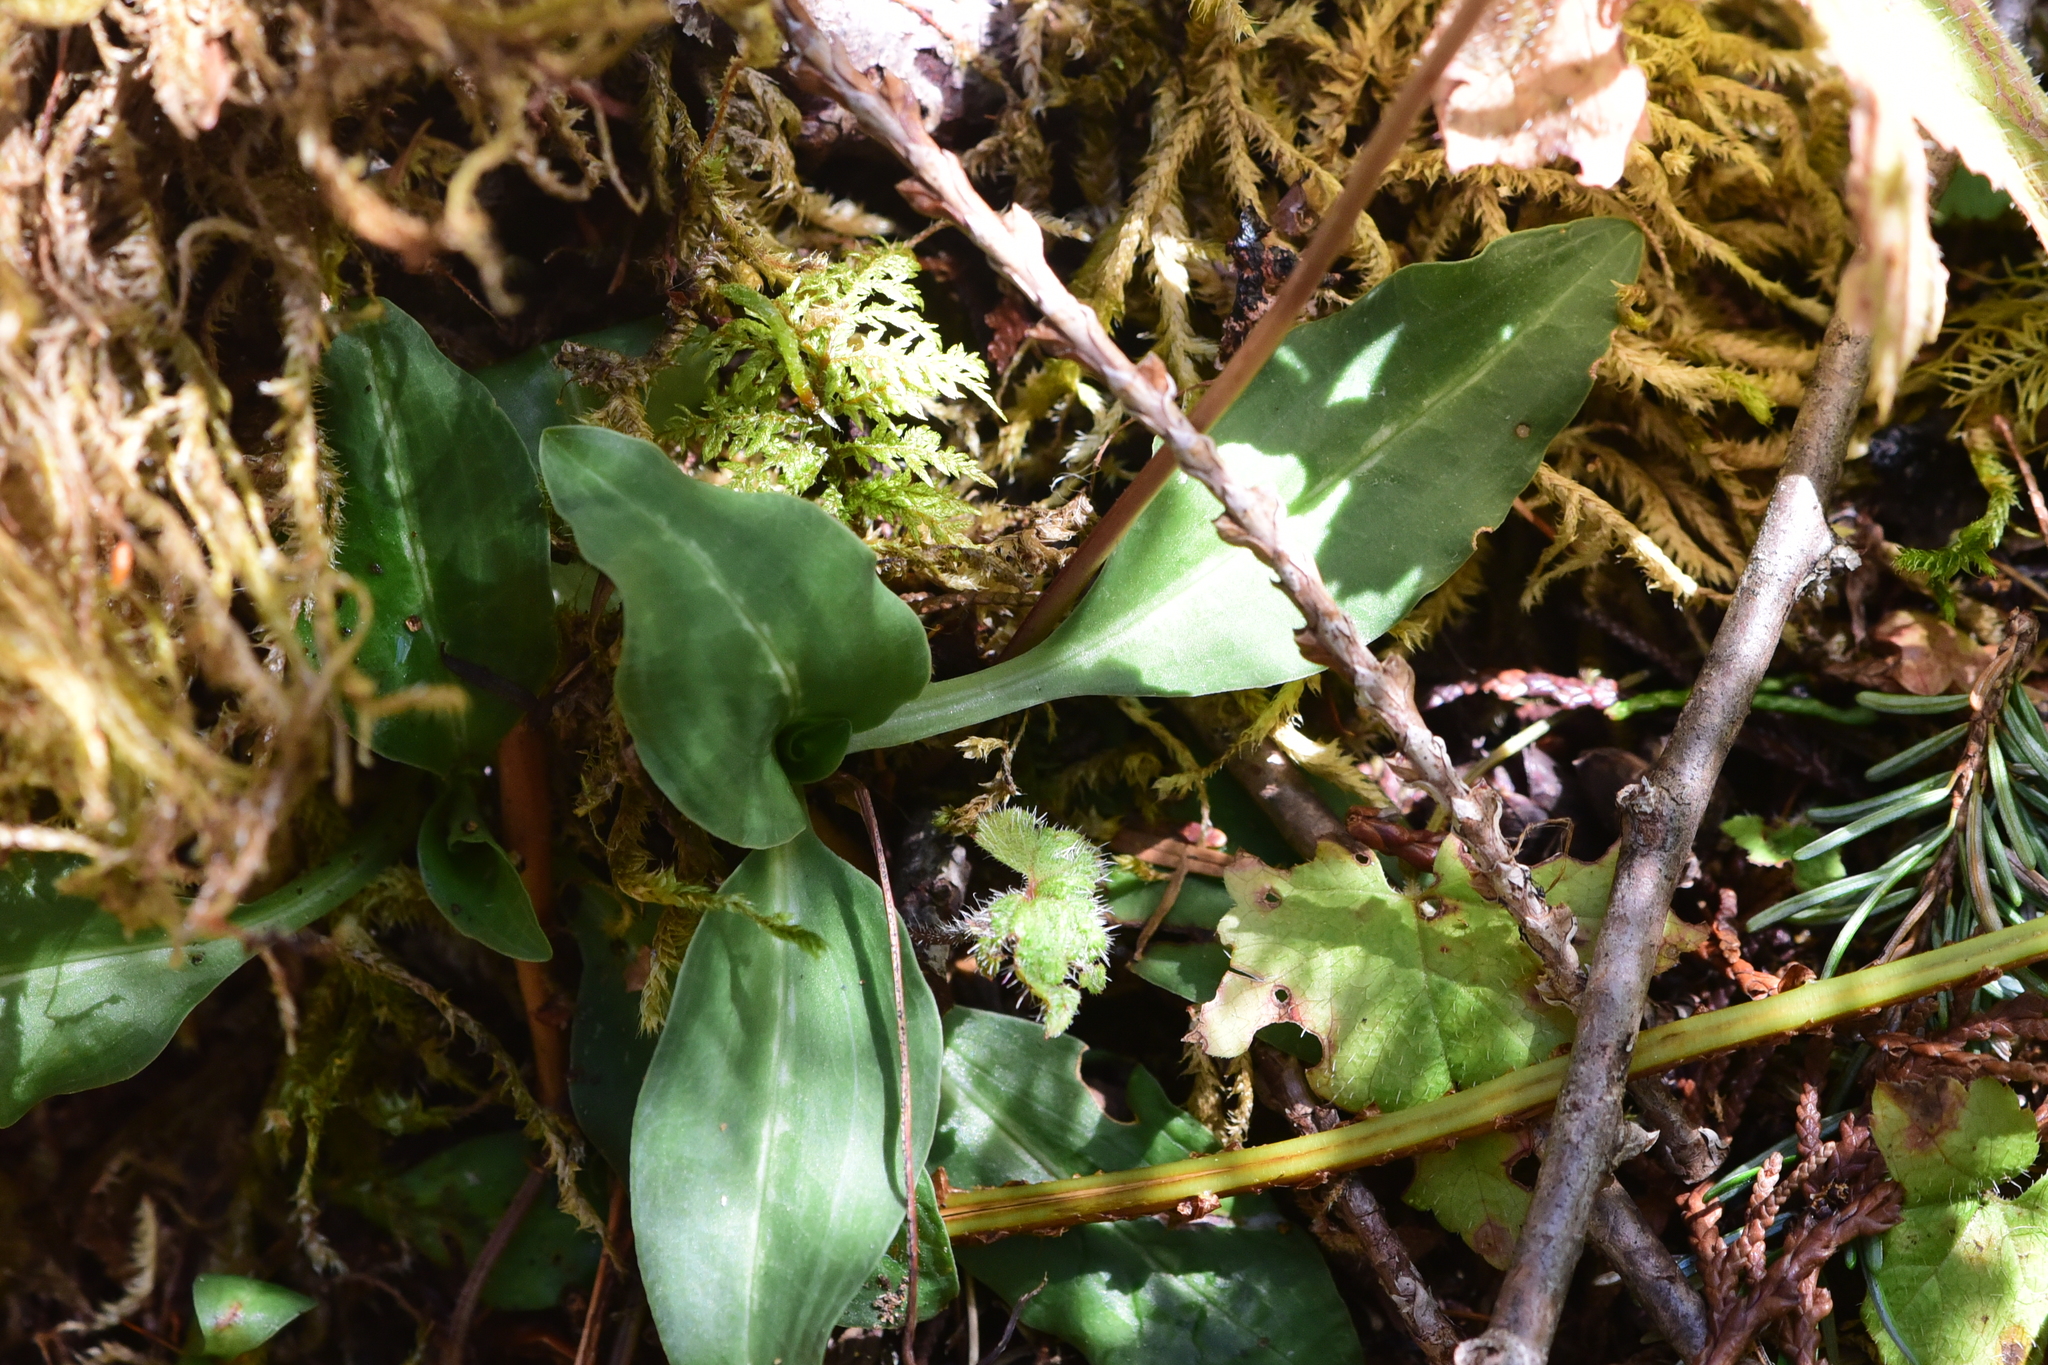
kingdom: Plantae
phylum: Tracheophyta
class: Liliopsida
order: Asparagales
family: Orchidaceae
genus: Goodyera
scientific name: Goodyera oblongifolia
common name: Giant rattlesnake-plantain
